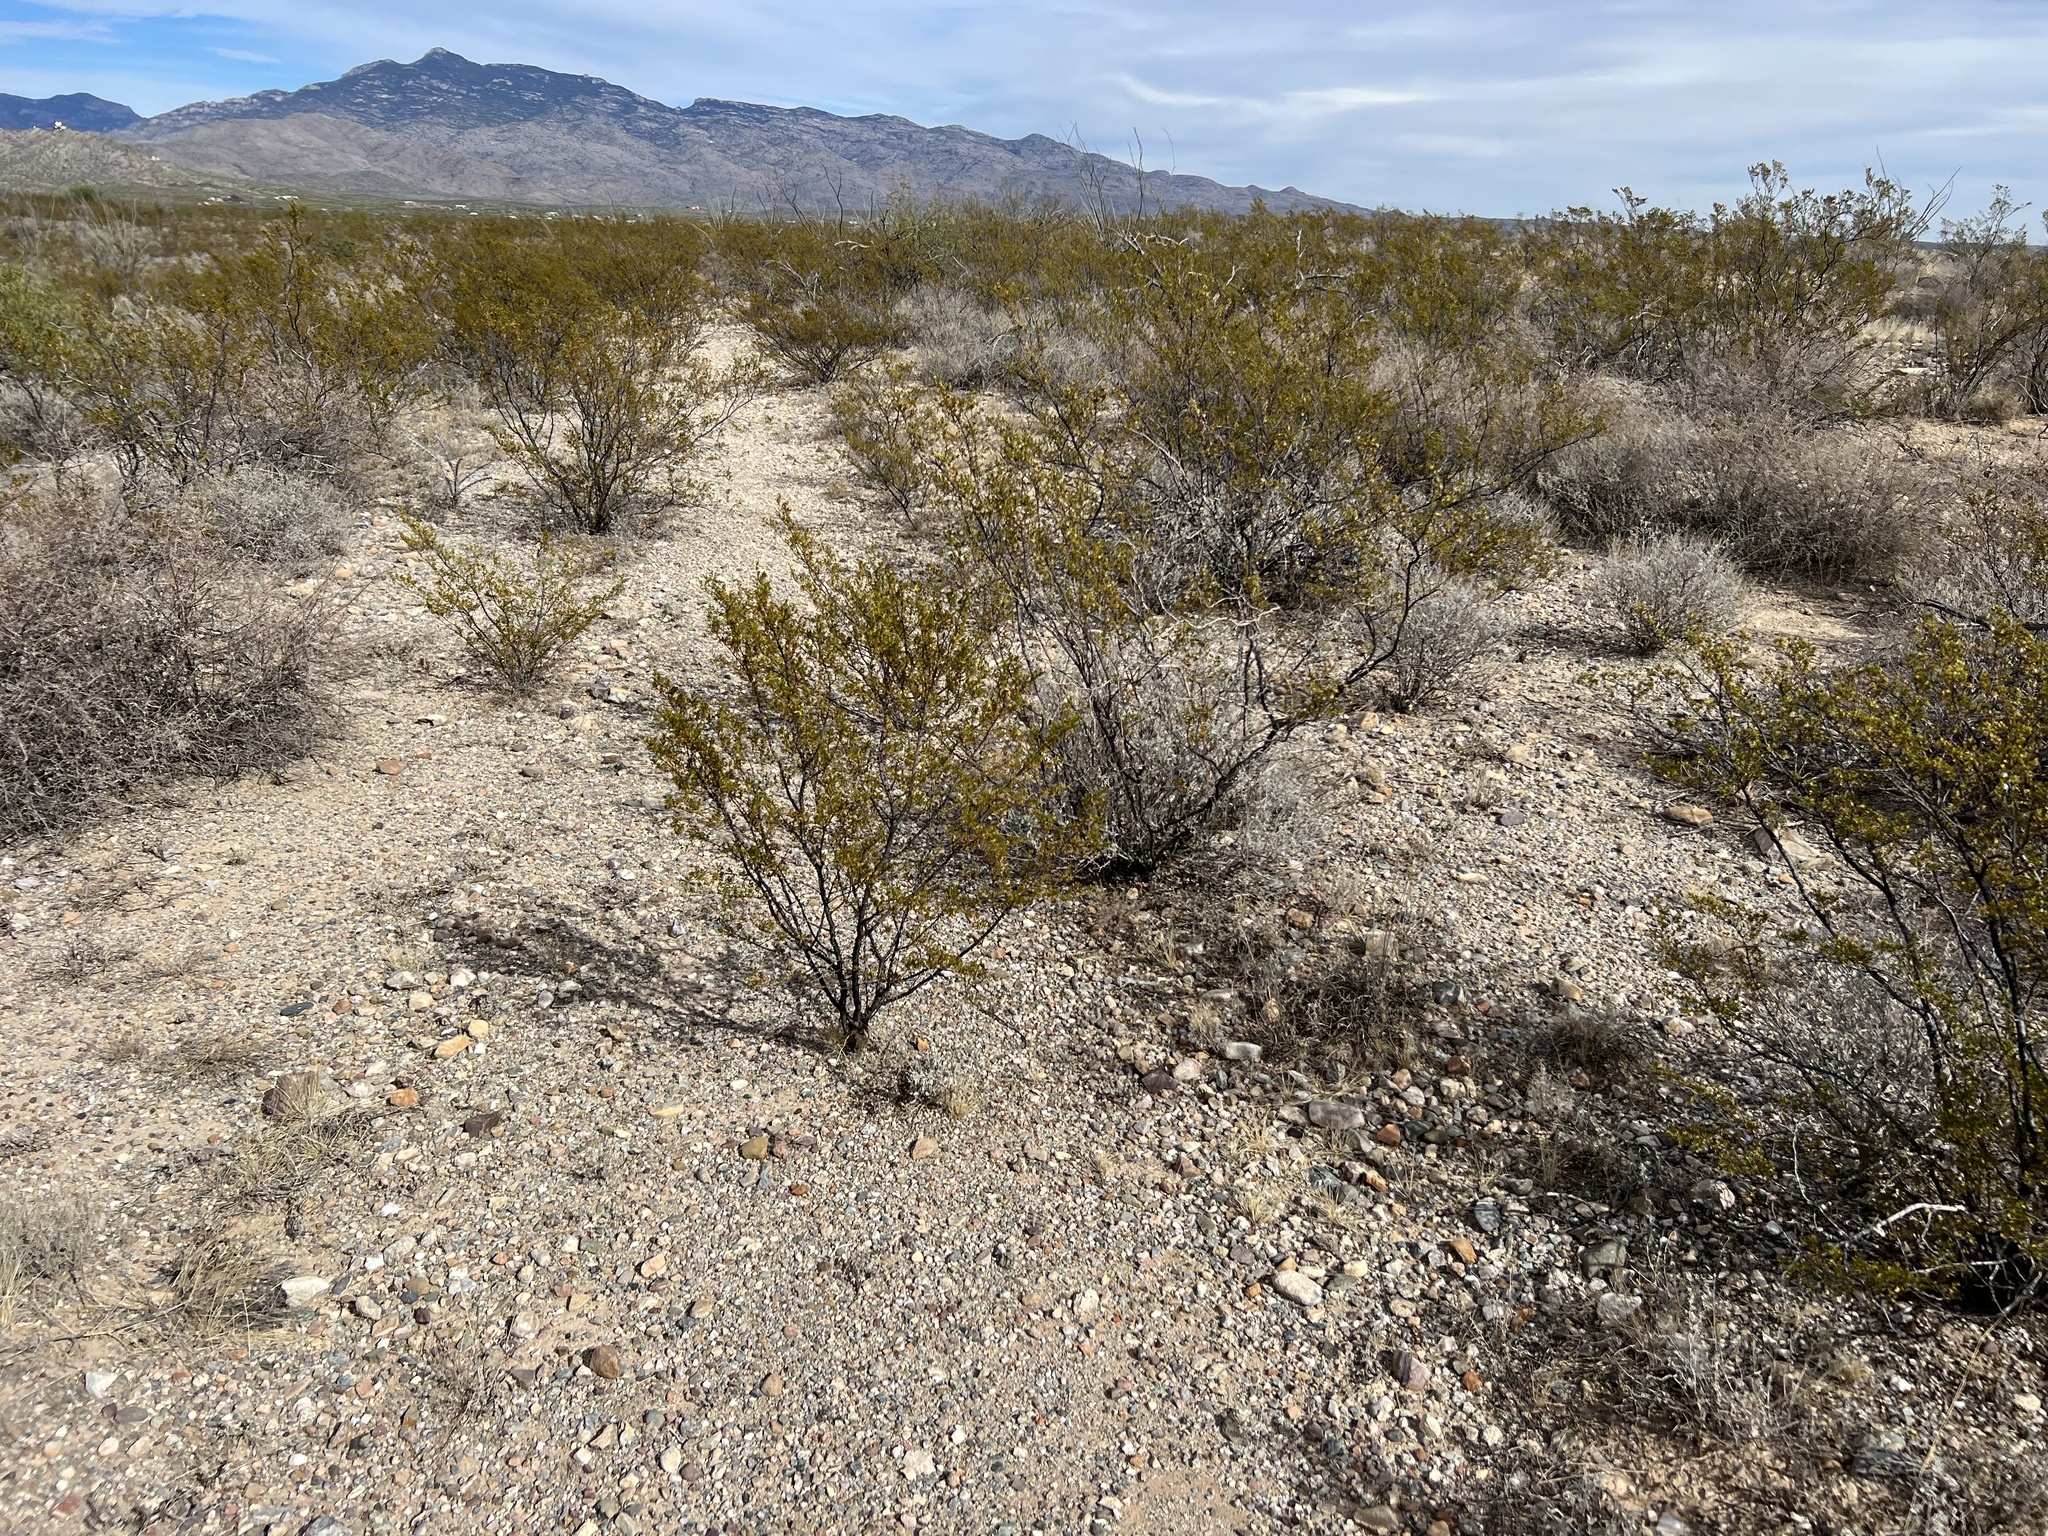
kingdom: Plantae
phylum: Tracheophyta
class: Magnoliopsida
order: Zygophyllales
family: Zygophyllaceae
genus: Larrea
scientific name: Larrea tridentata
